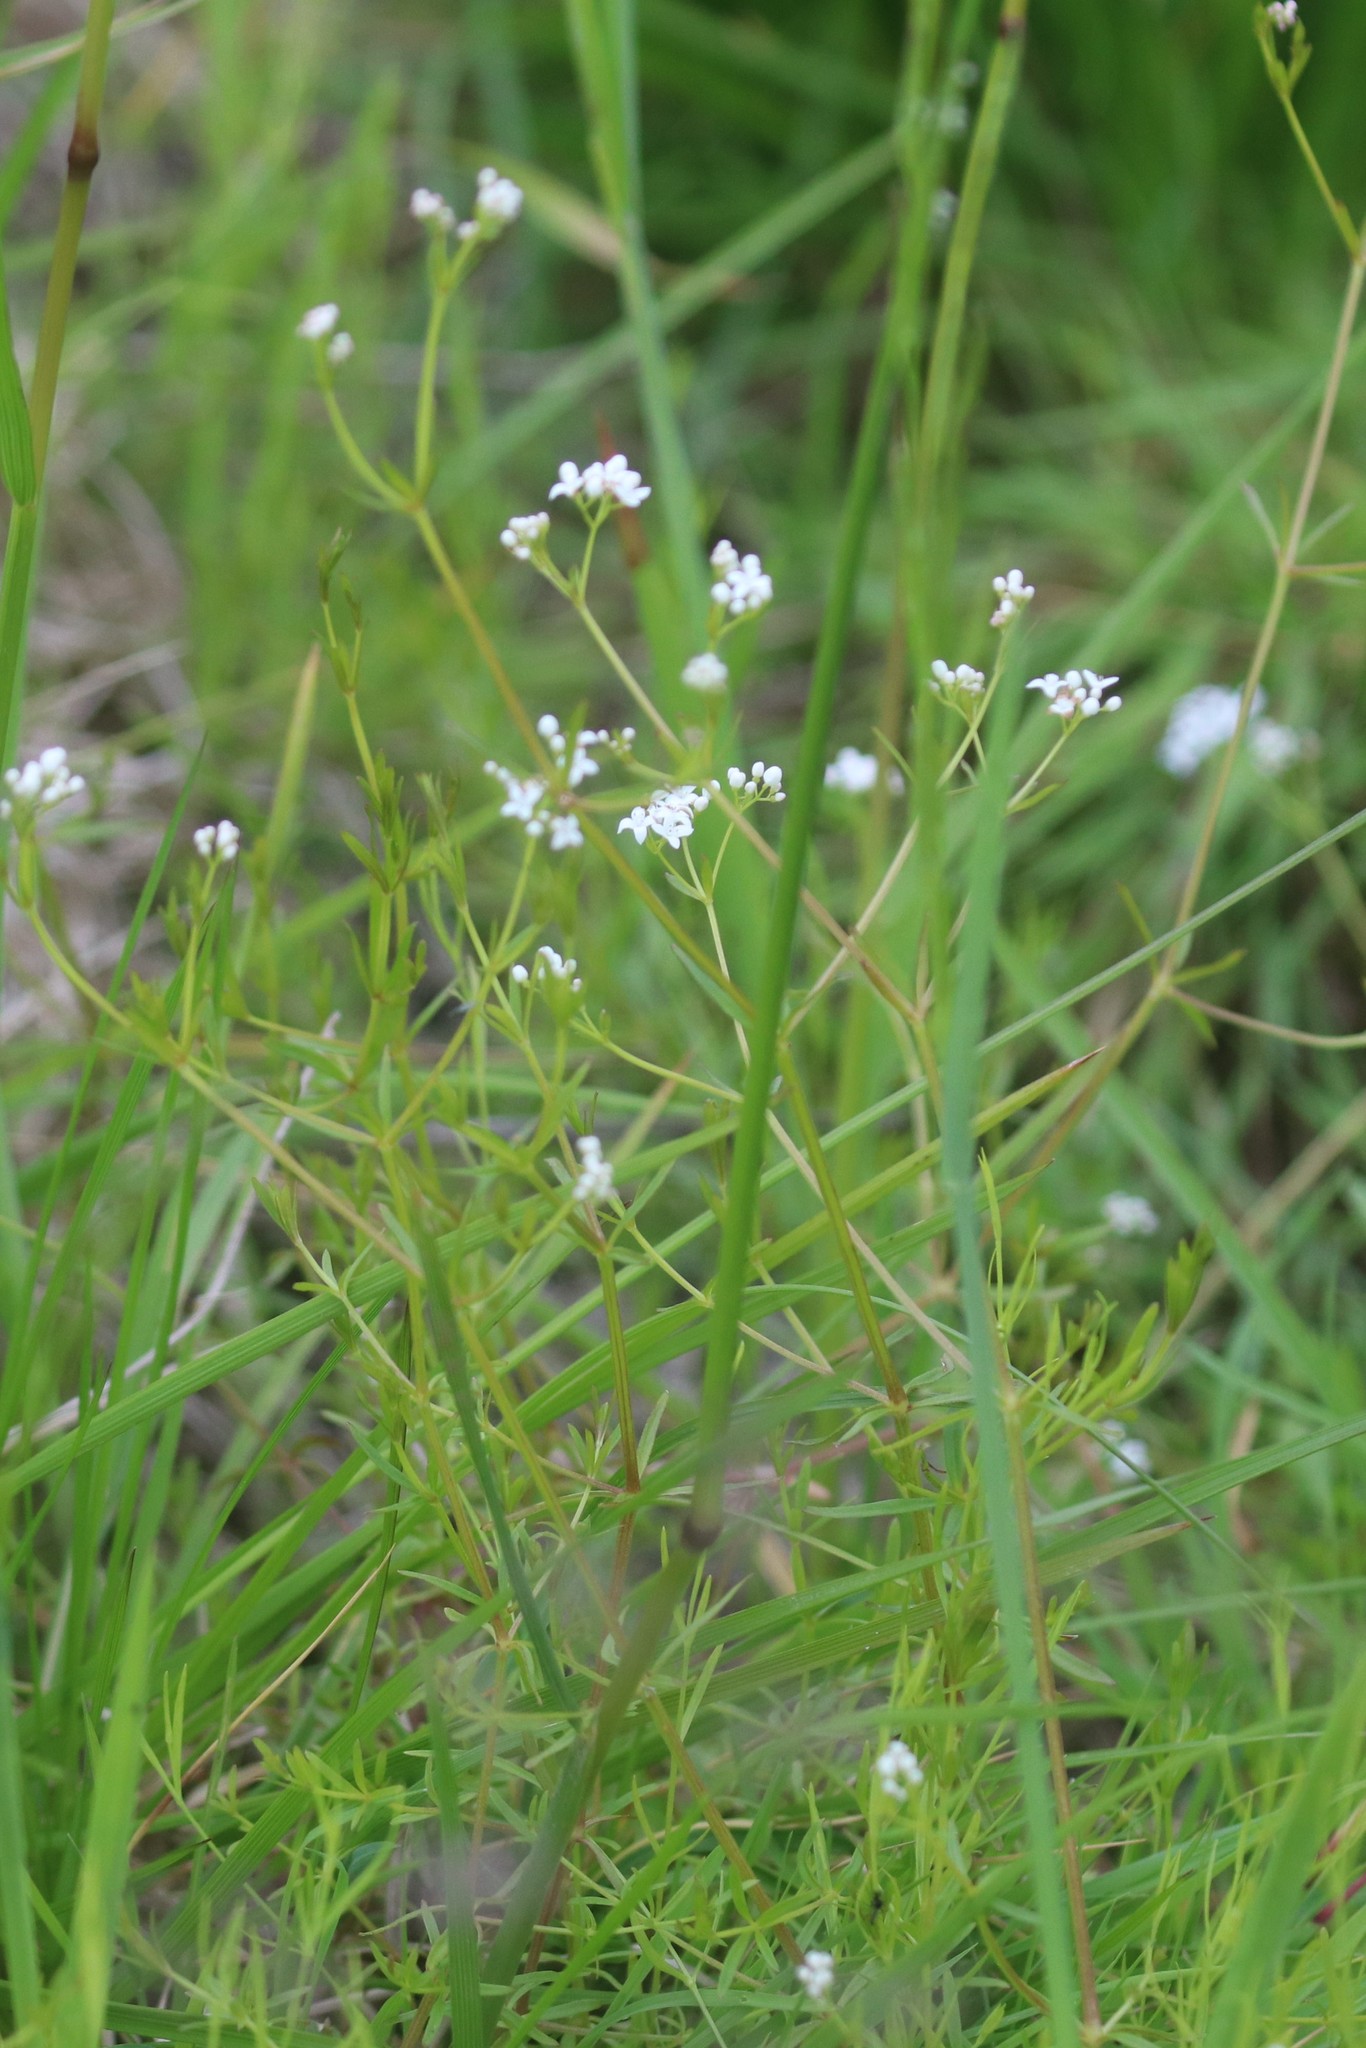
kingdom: Plantae
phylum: Tracheophyta
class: Magnoliopsida
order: Gentianales
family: Rubiaceae
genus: Galium
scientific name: Galium palustre
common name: Common marsh-bedstraw
